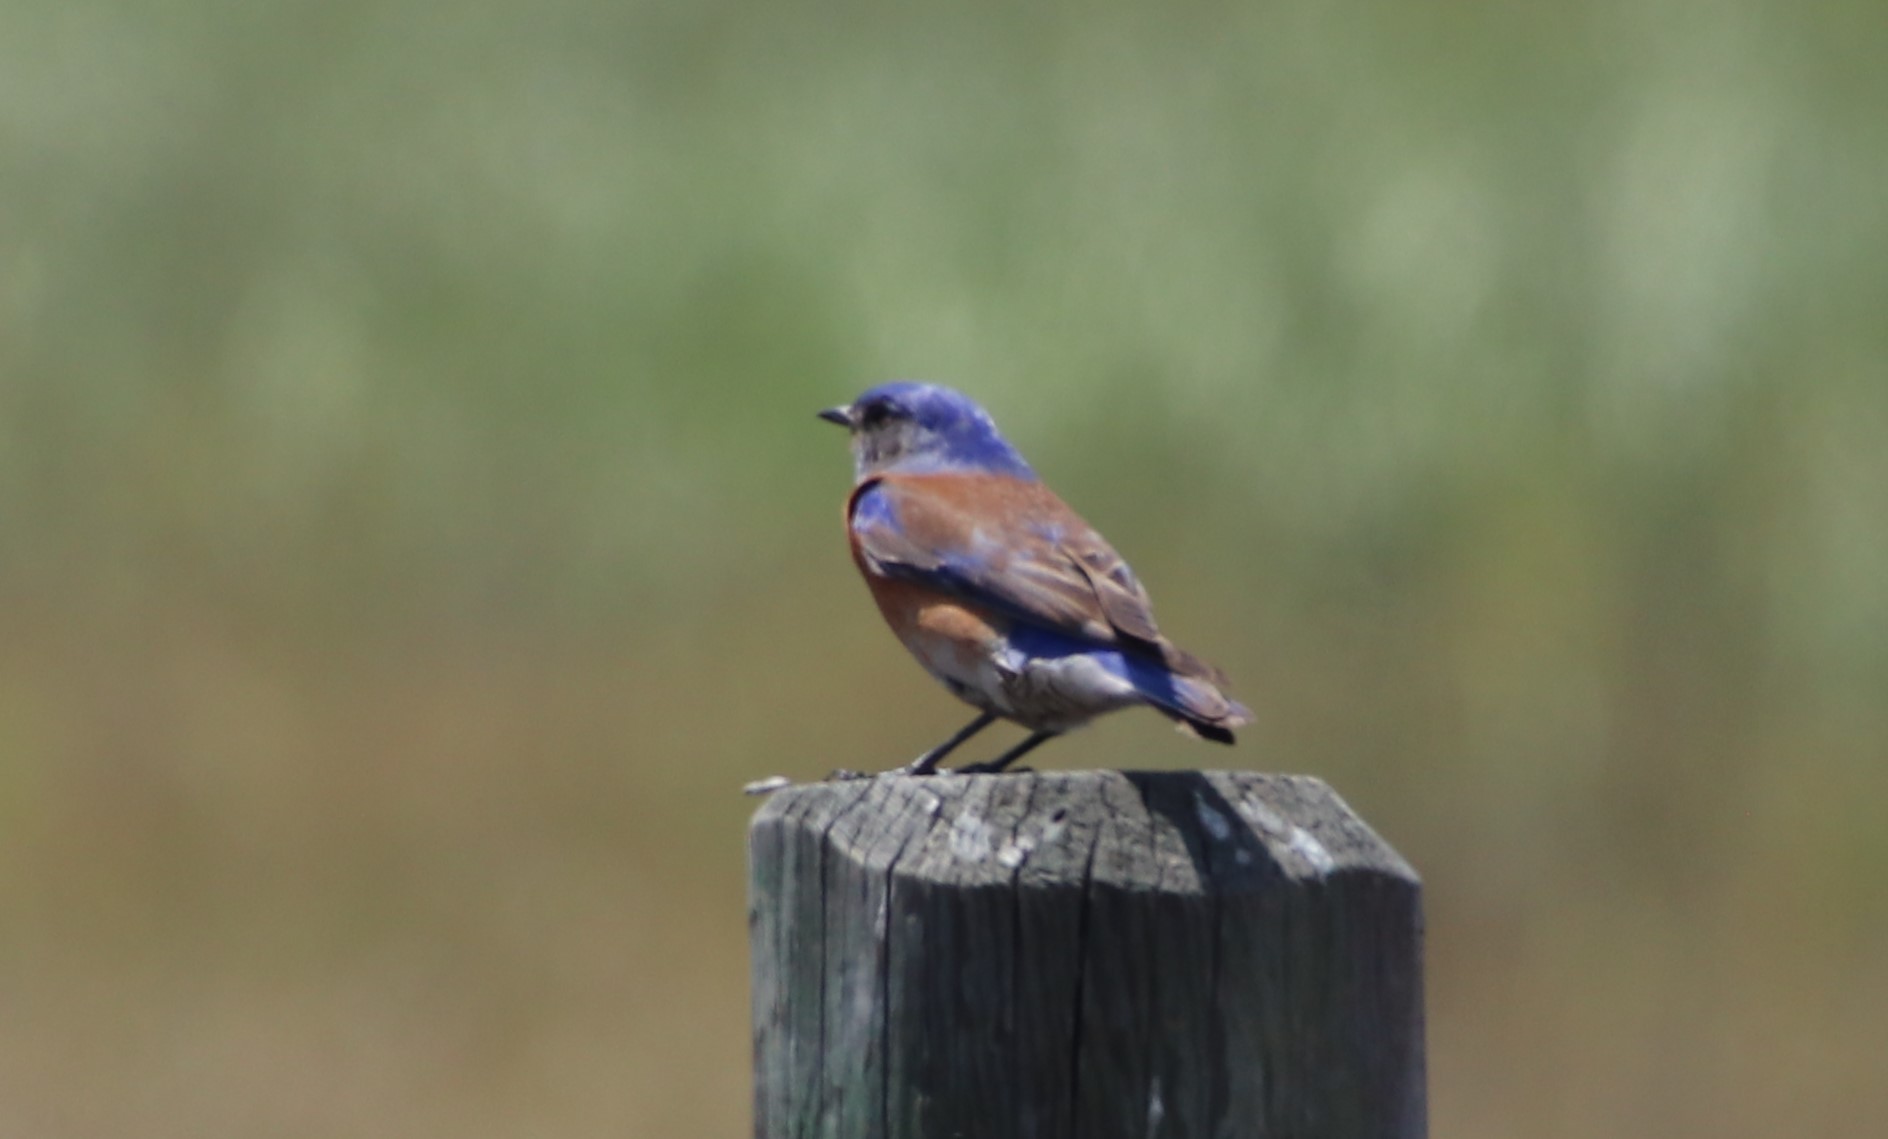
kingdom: Animalia
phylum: Chordata
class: Aves
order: Passeriformes
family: Turdidae
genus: Sialia
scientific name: Sialia mexicana
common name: Western bluebird
